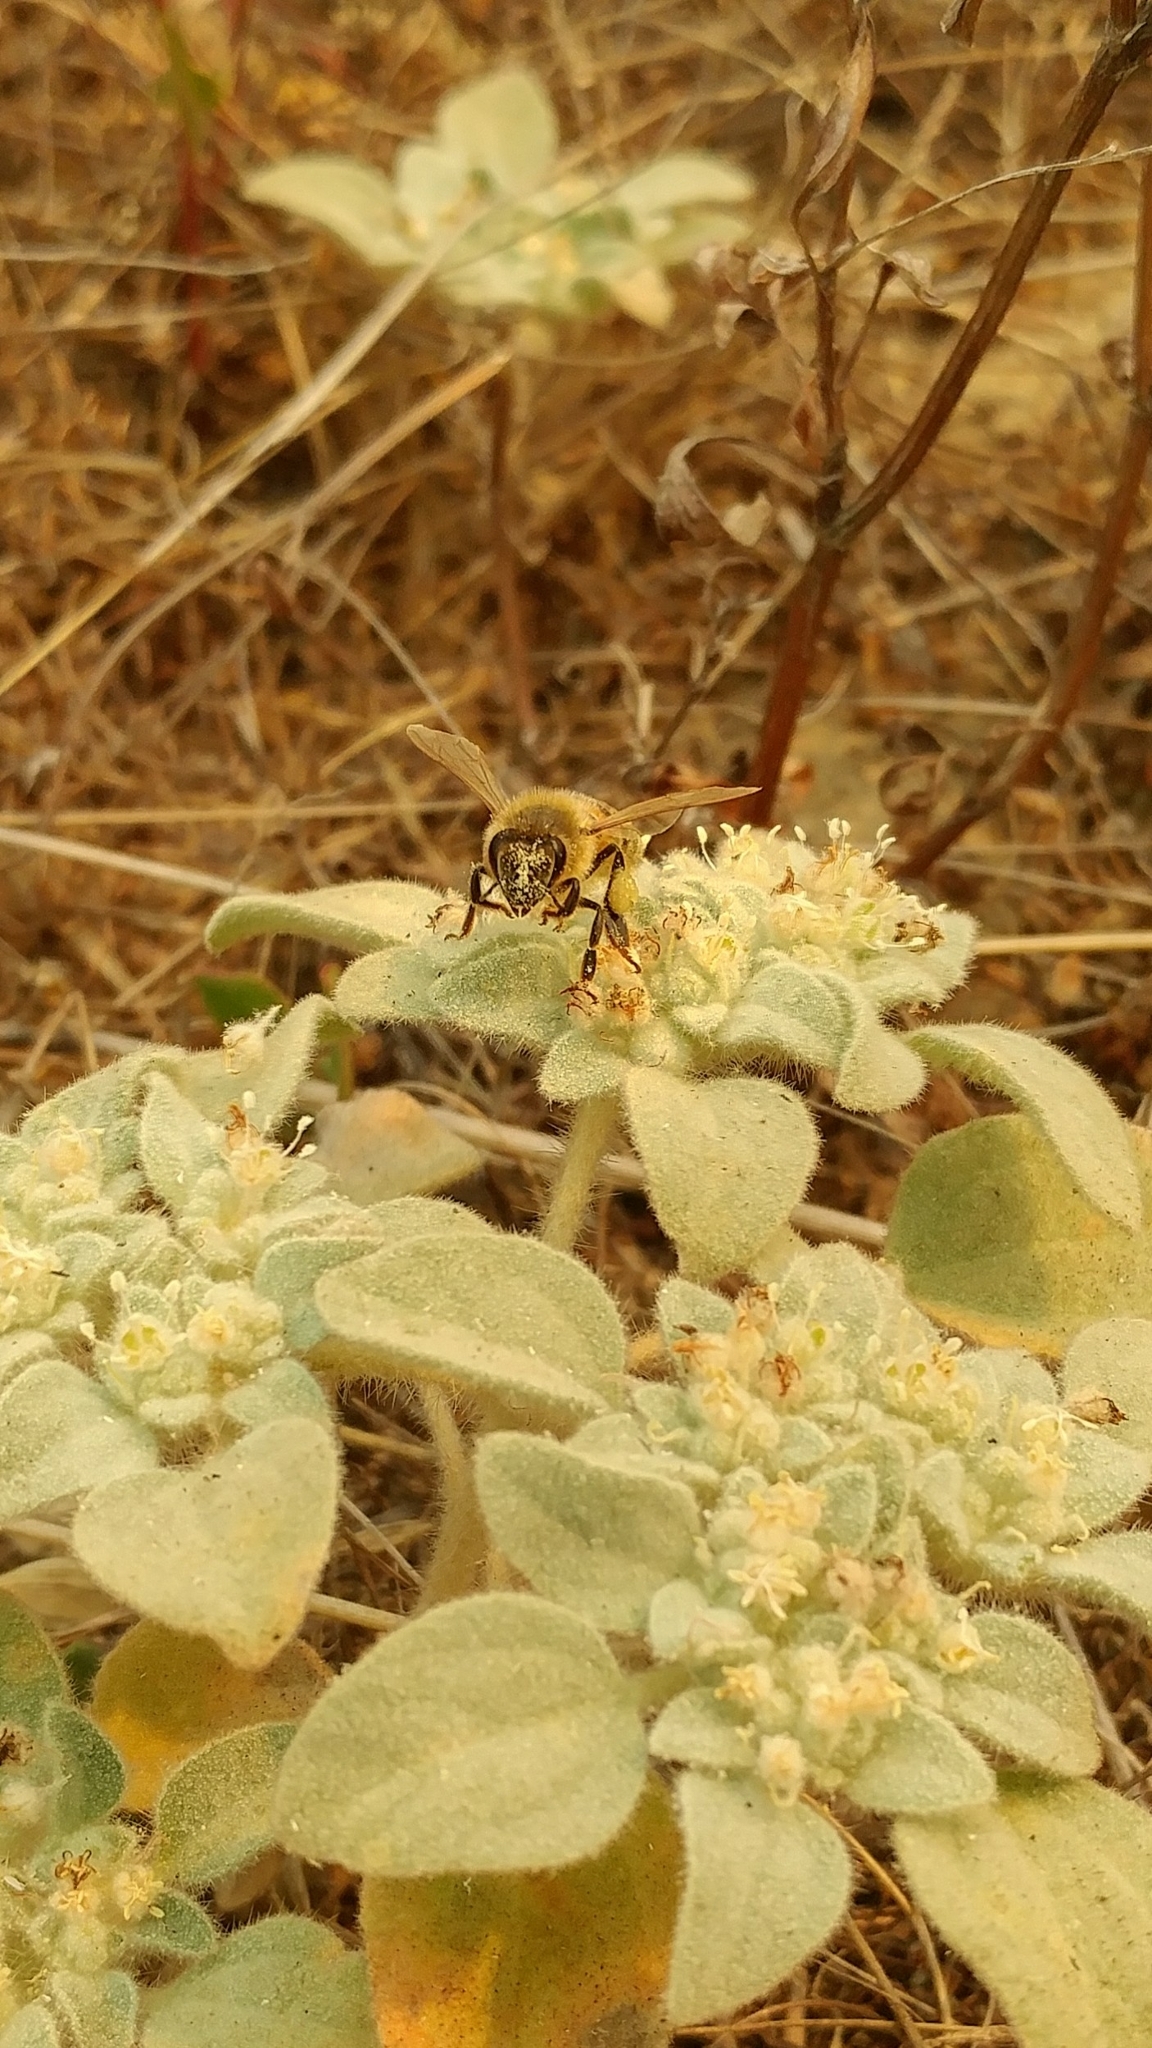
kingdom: Animalia
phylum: Arthropoda
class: Insecta
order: Hymenoptera
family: Apidae
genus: Apis
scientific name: Apis mellifera
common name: Honey bee
